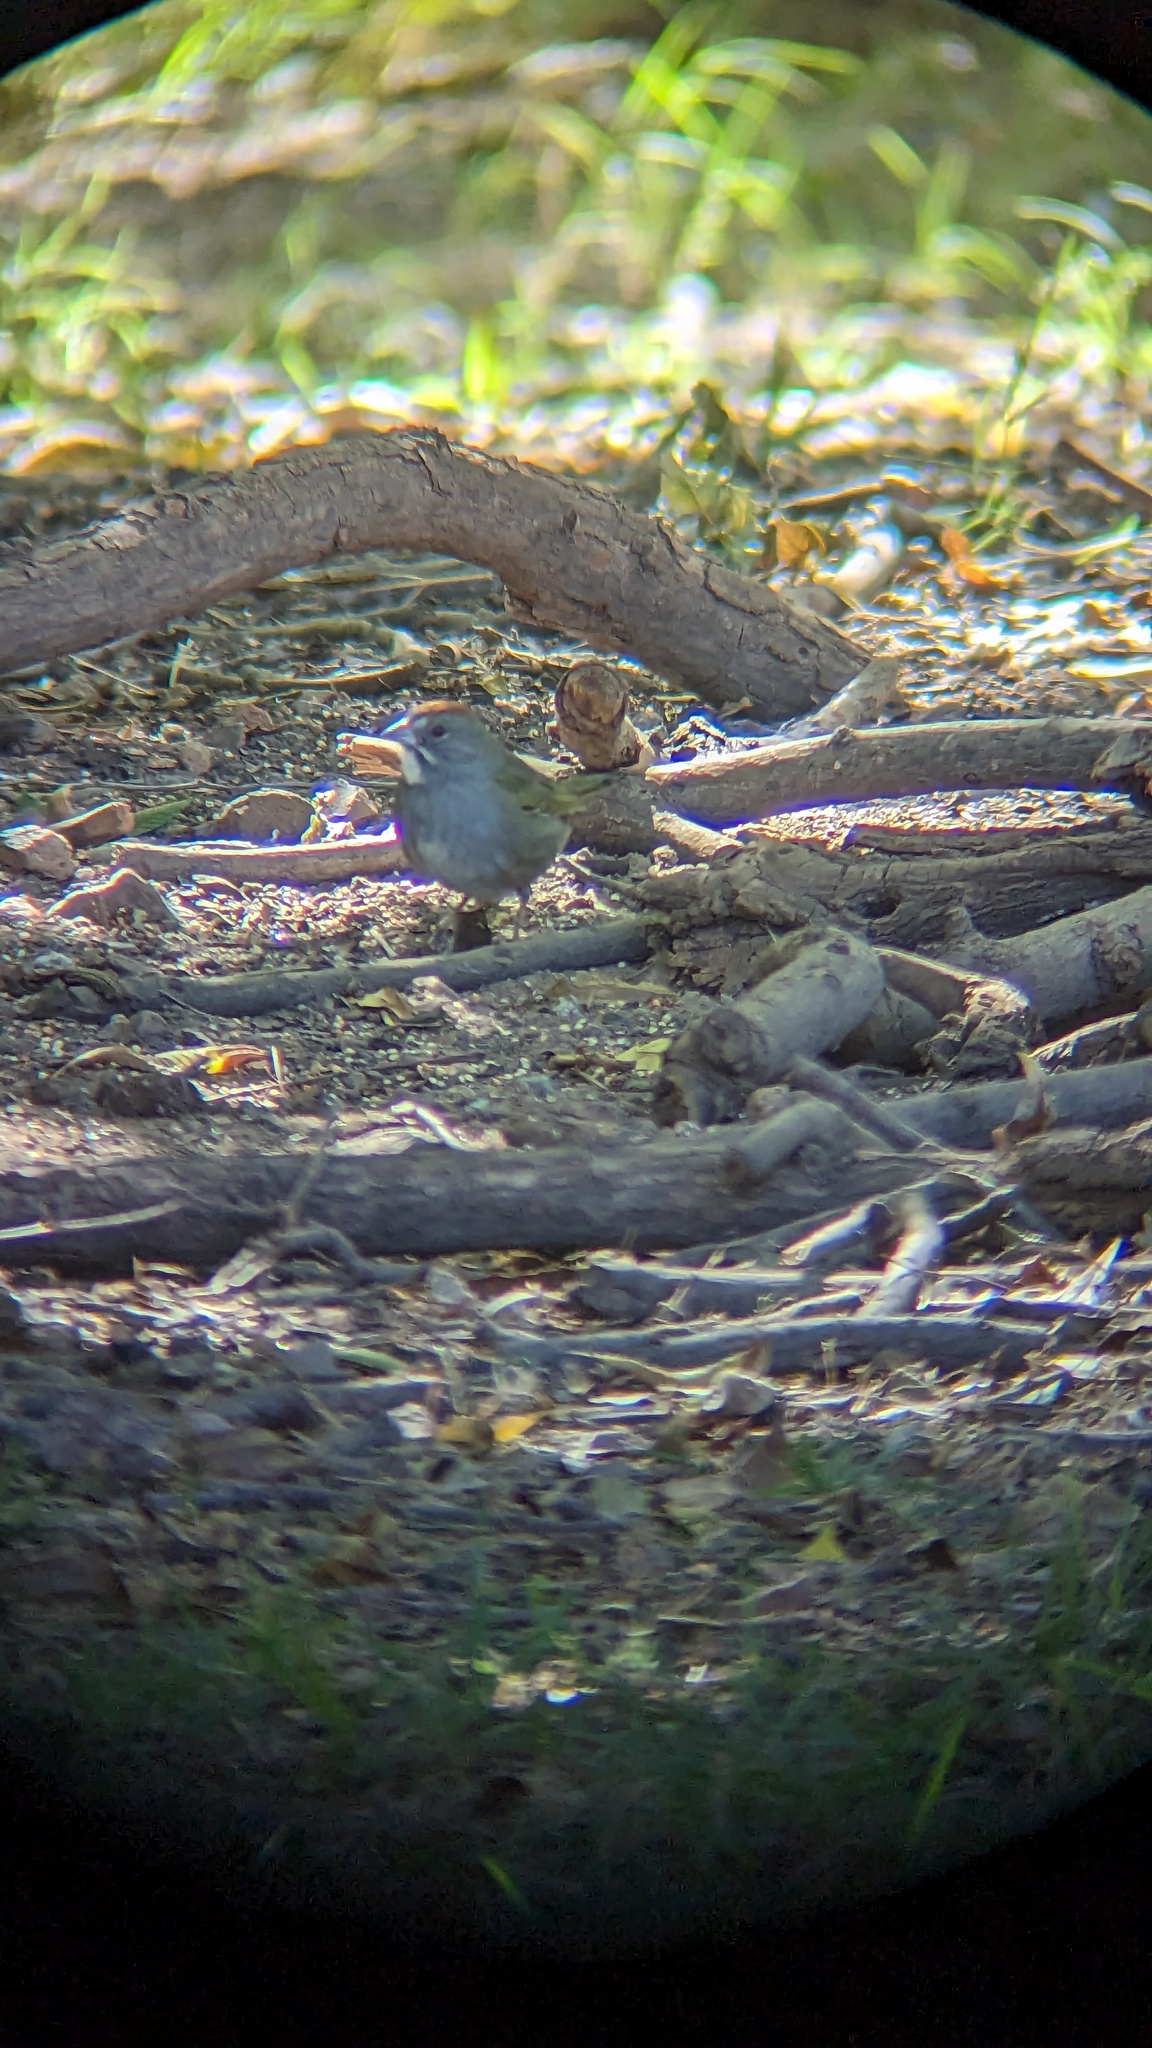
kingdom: Animalia
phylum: Chordata
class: Aves
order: Passeriformes
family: Passerellidae
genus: Pipilo
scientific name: Pipilo chlorurus
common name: Green-tailed towhee
